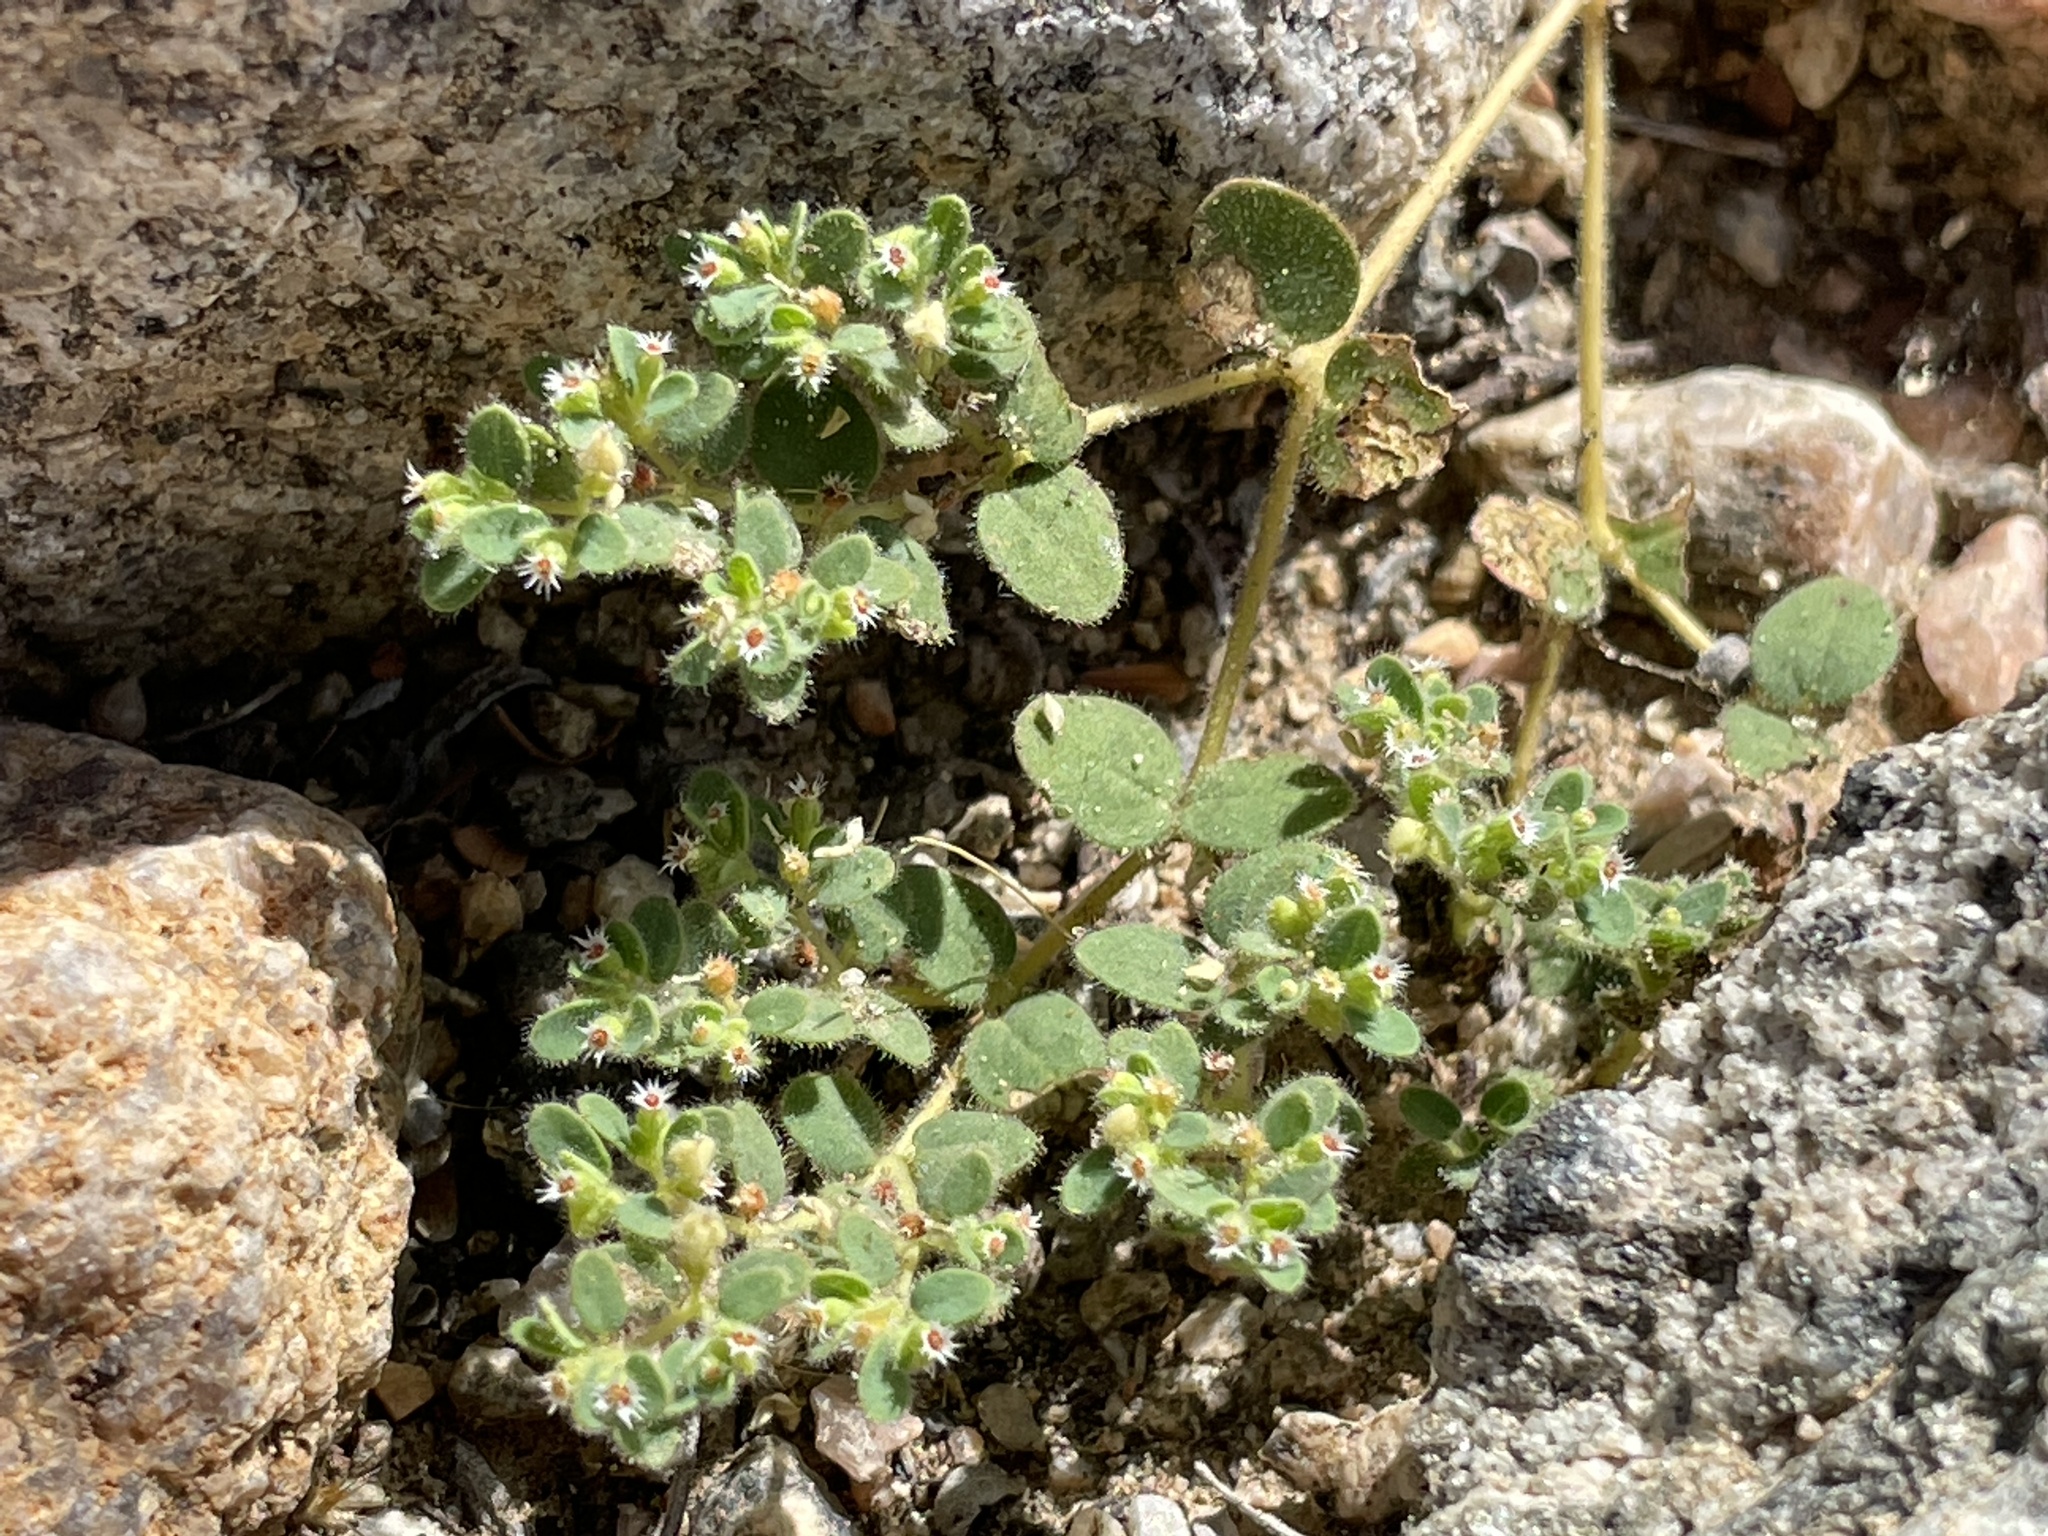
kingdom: Plantae
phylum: Tracheophyta
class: Magnoliopsida
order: Malpighiales
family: Euphorbiaceae
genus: Euphorbia
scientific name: Euphorbia setiloba
